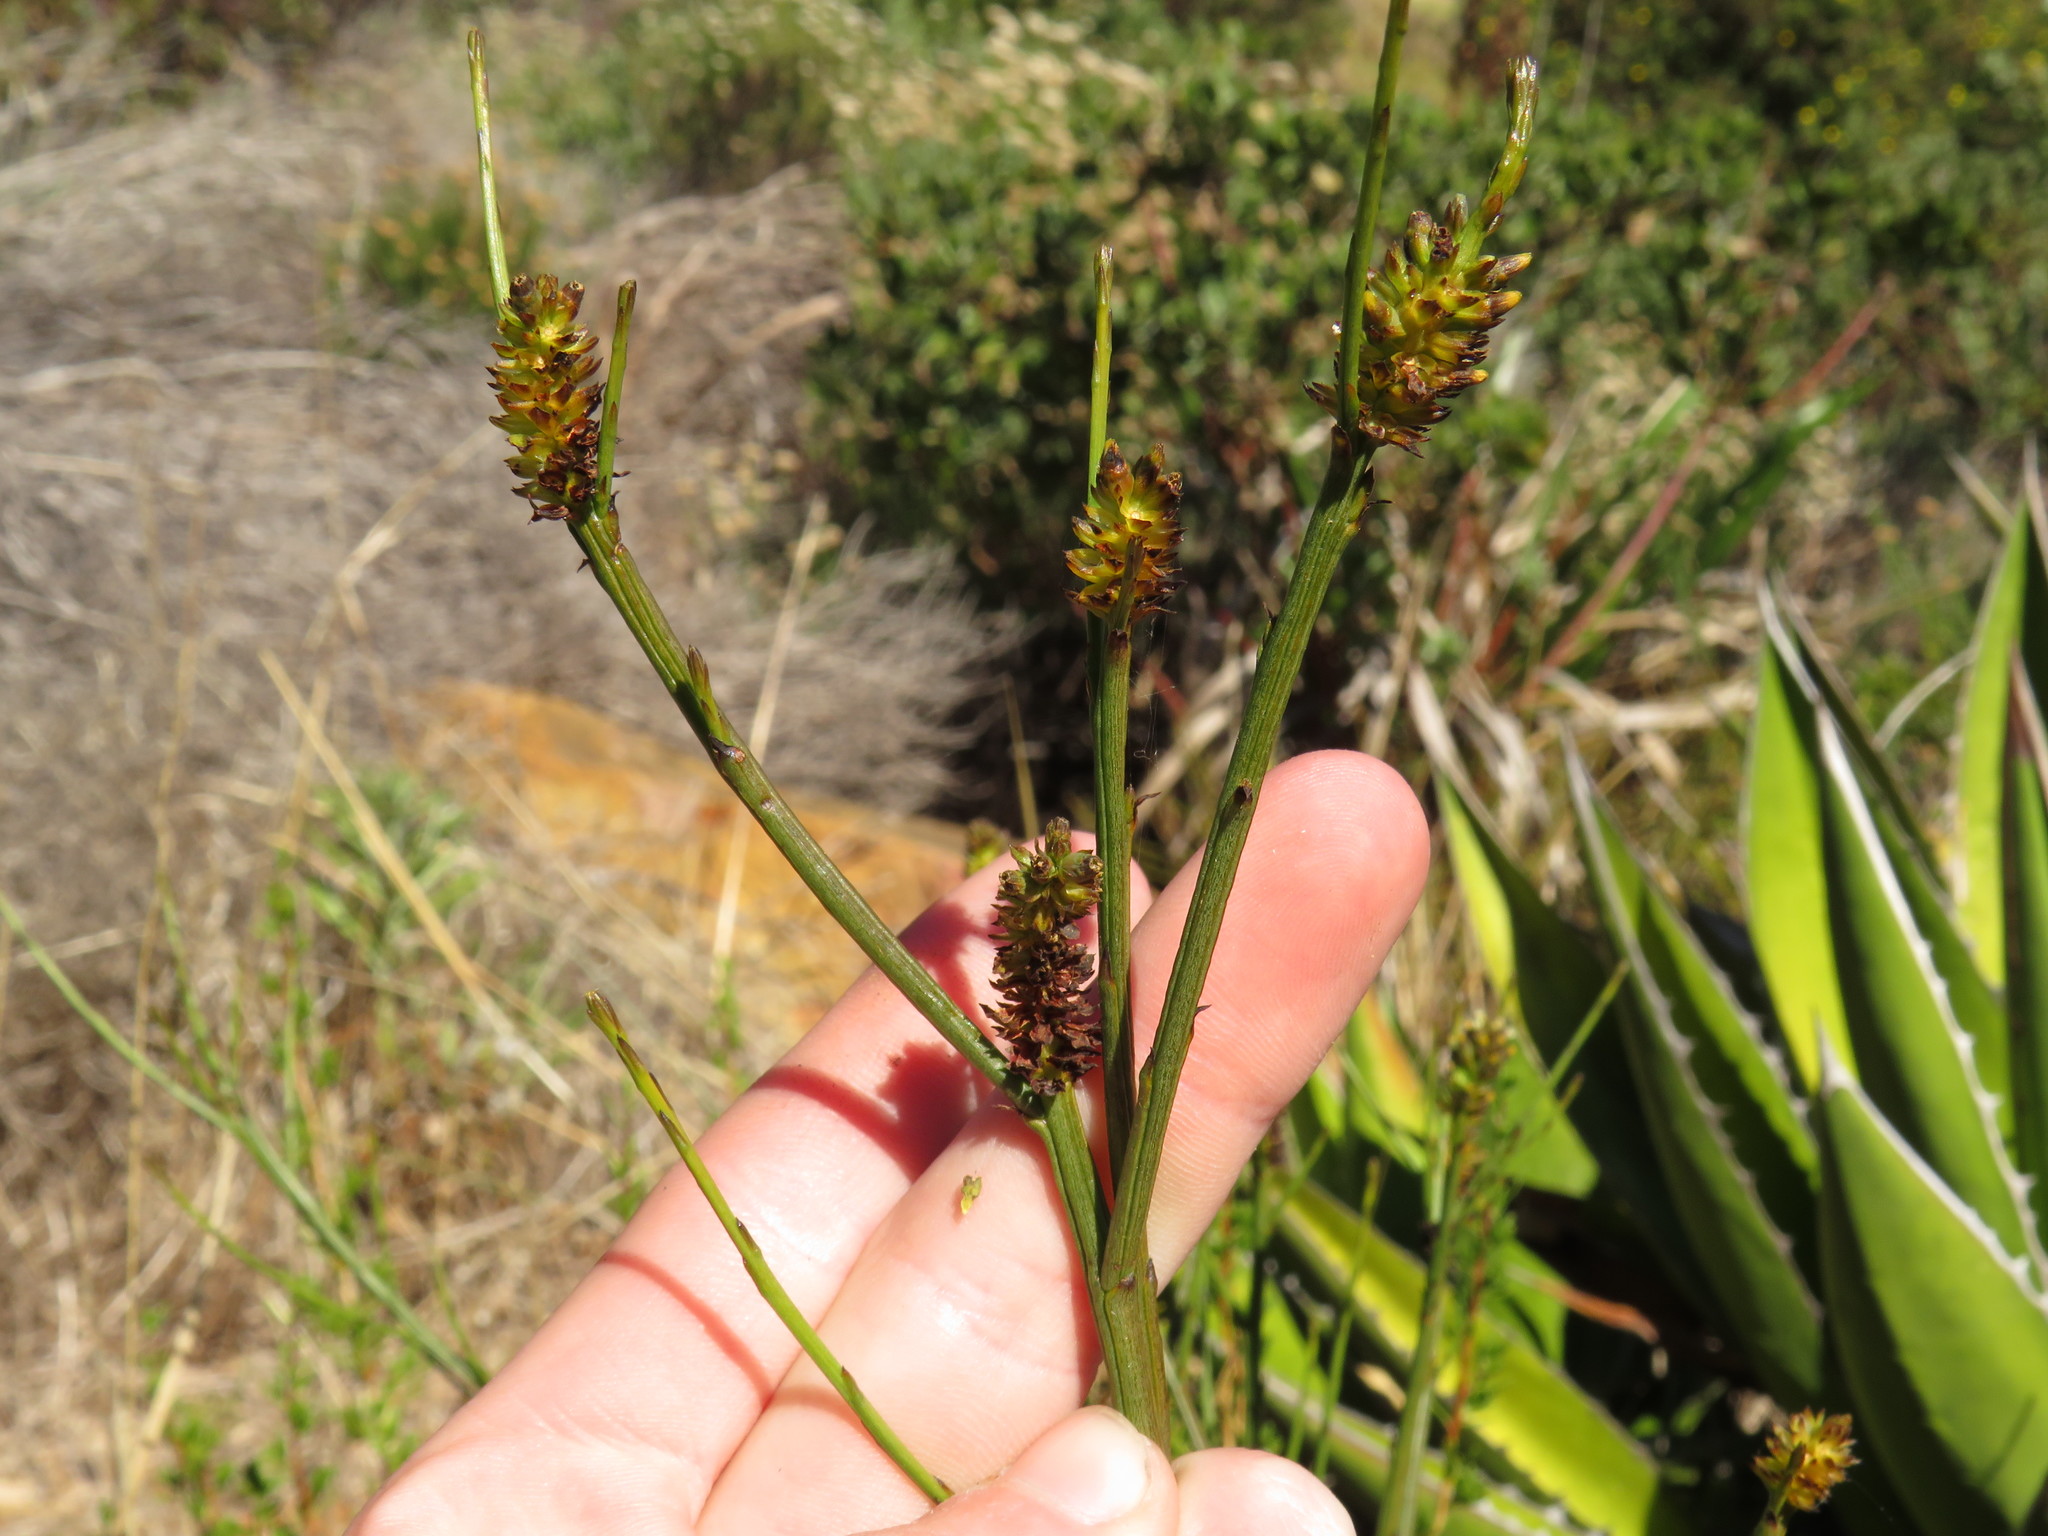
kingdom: Plantae
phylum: Tracheophyta
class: Magnoliopsida
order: Santalales
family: Thesiaceae
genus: Thesium
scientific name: Thesium aggregatum
